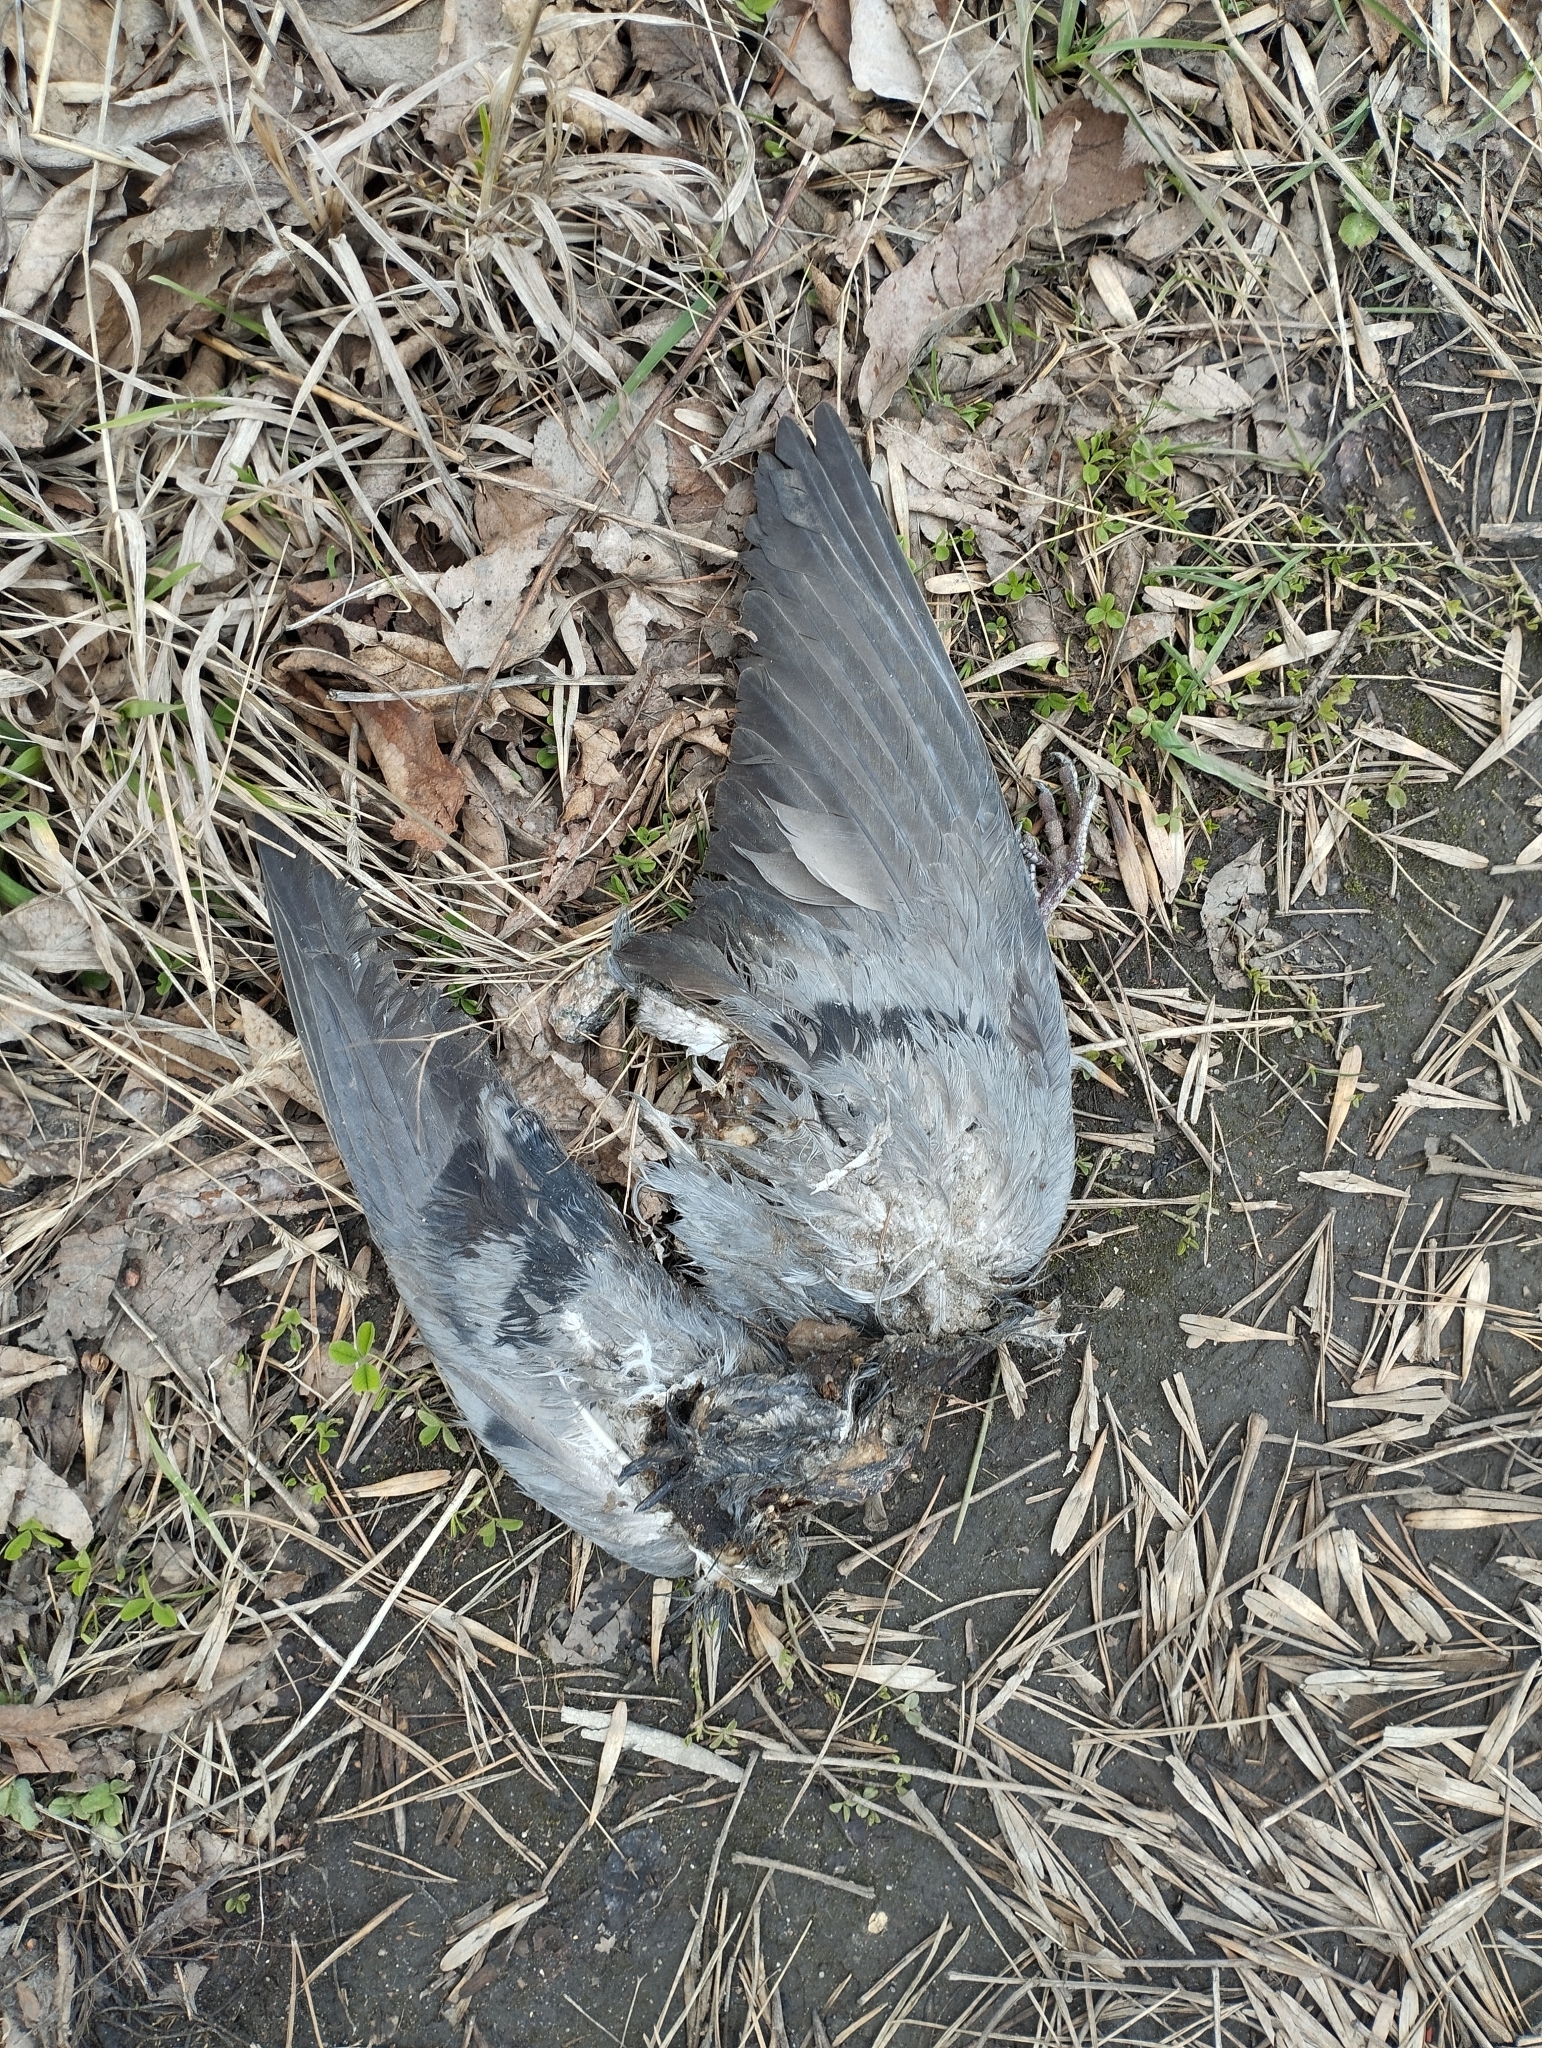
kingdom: Animalia
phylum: Chordata
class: Aves
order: Columbiformes
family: Columbidae
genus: Columba
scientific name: Columba livia
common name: Rock pigeon
